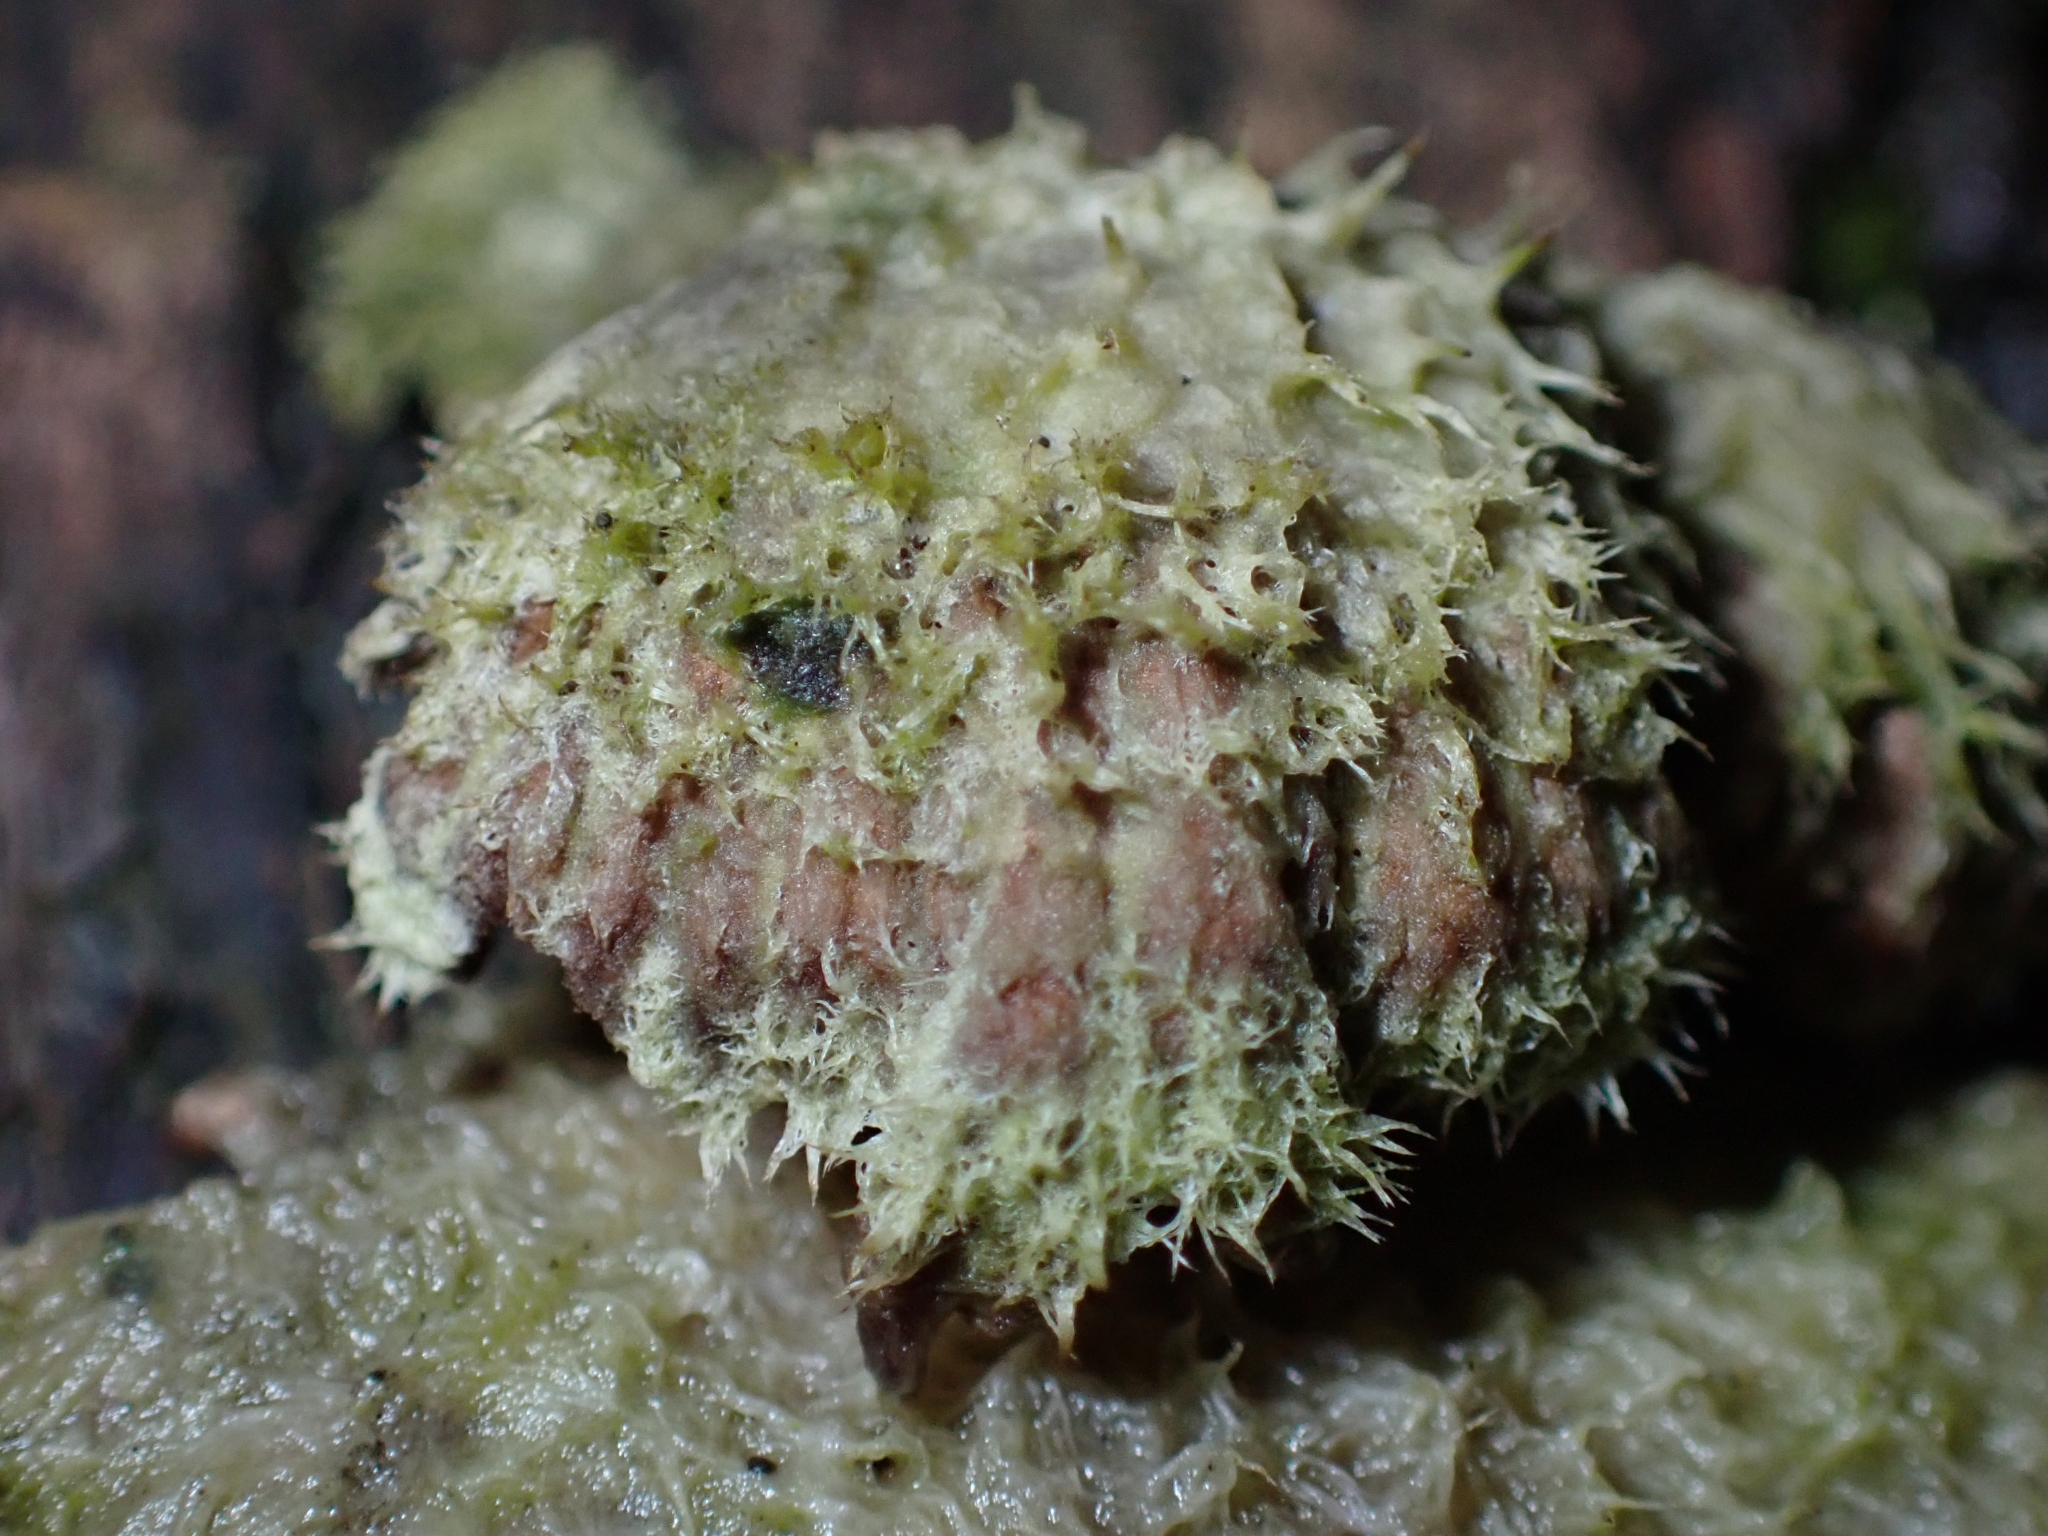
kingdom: Fungi
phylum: Basidiomycota
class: Agaricomycetes
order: Agaricales
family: Schizophyllaceae
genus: Schizophyllum
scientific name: Schizophyllum commune
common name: Common porecrust
